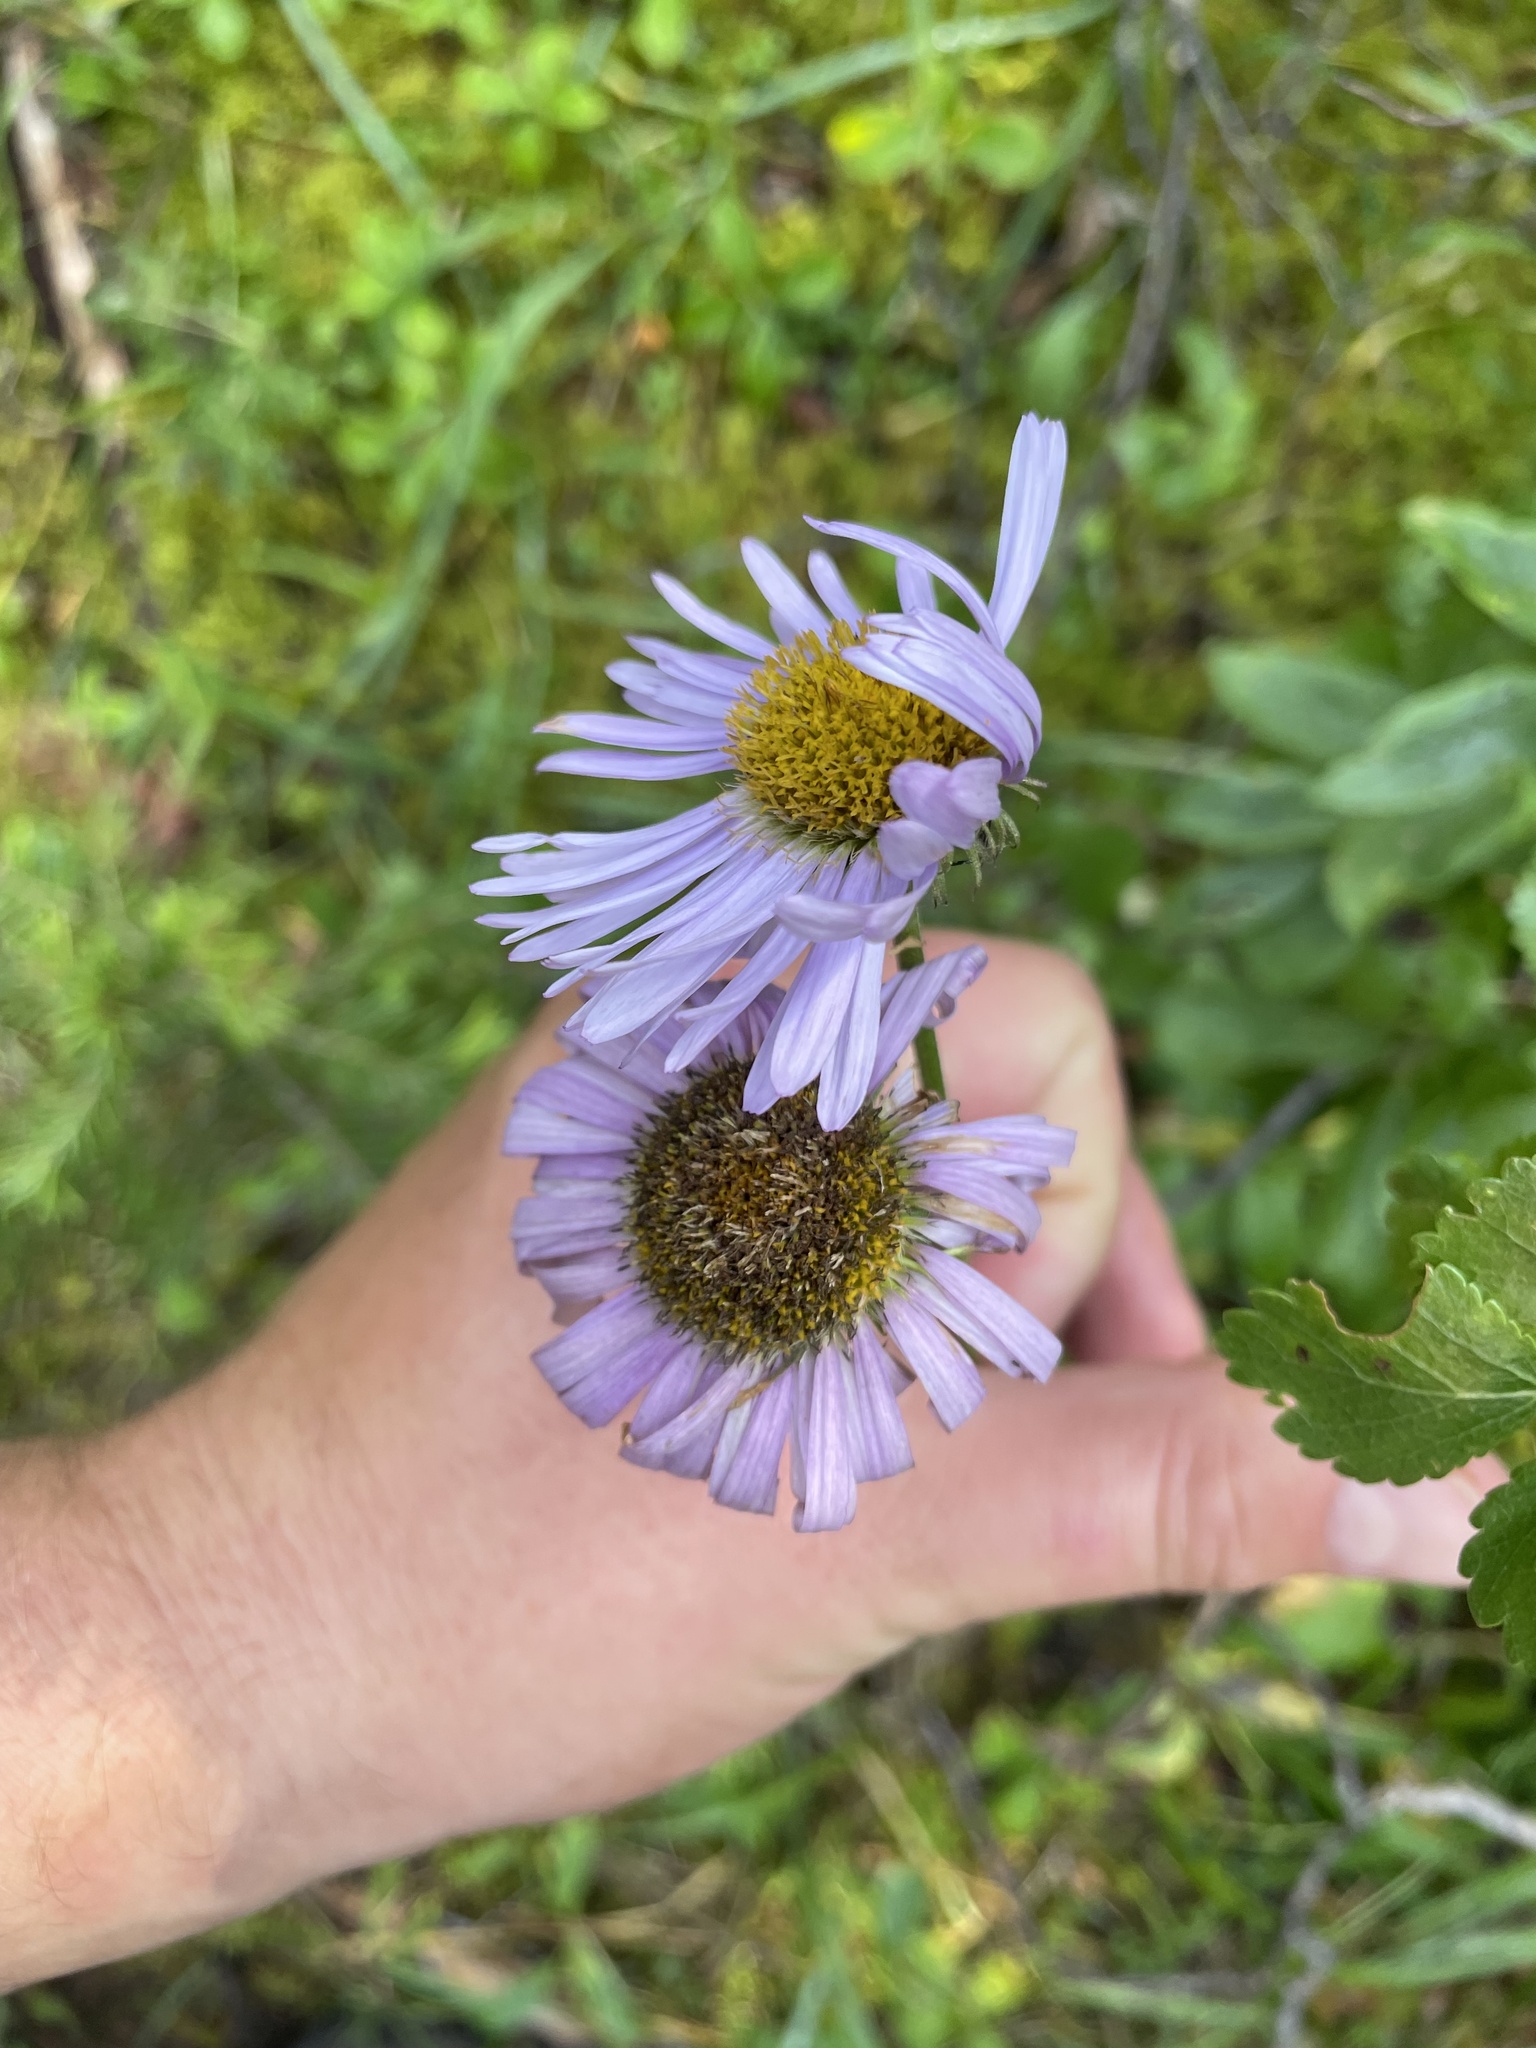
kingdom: Plantae
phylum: Tracheophyta
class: Magnoliopsida
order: Asterales
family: Asteraceae
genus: Erigeron
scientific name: Erigeron glacialis
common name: Subalpine fleabane
